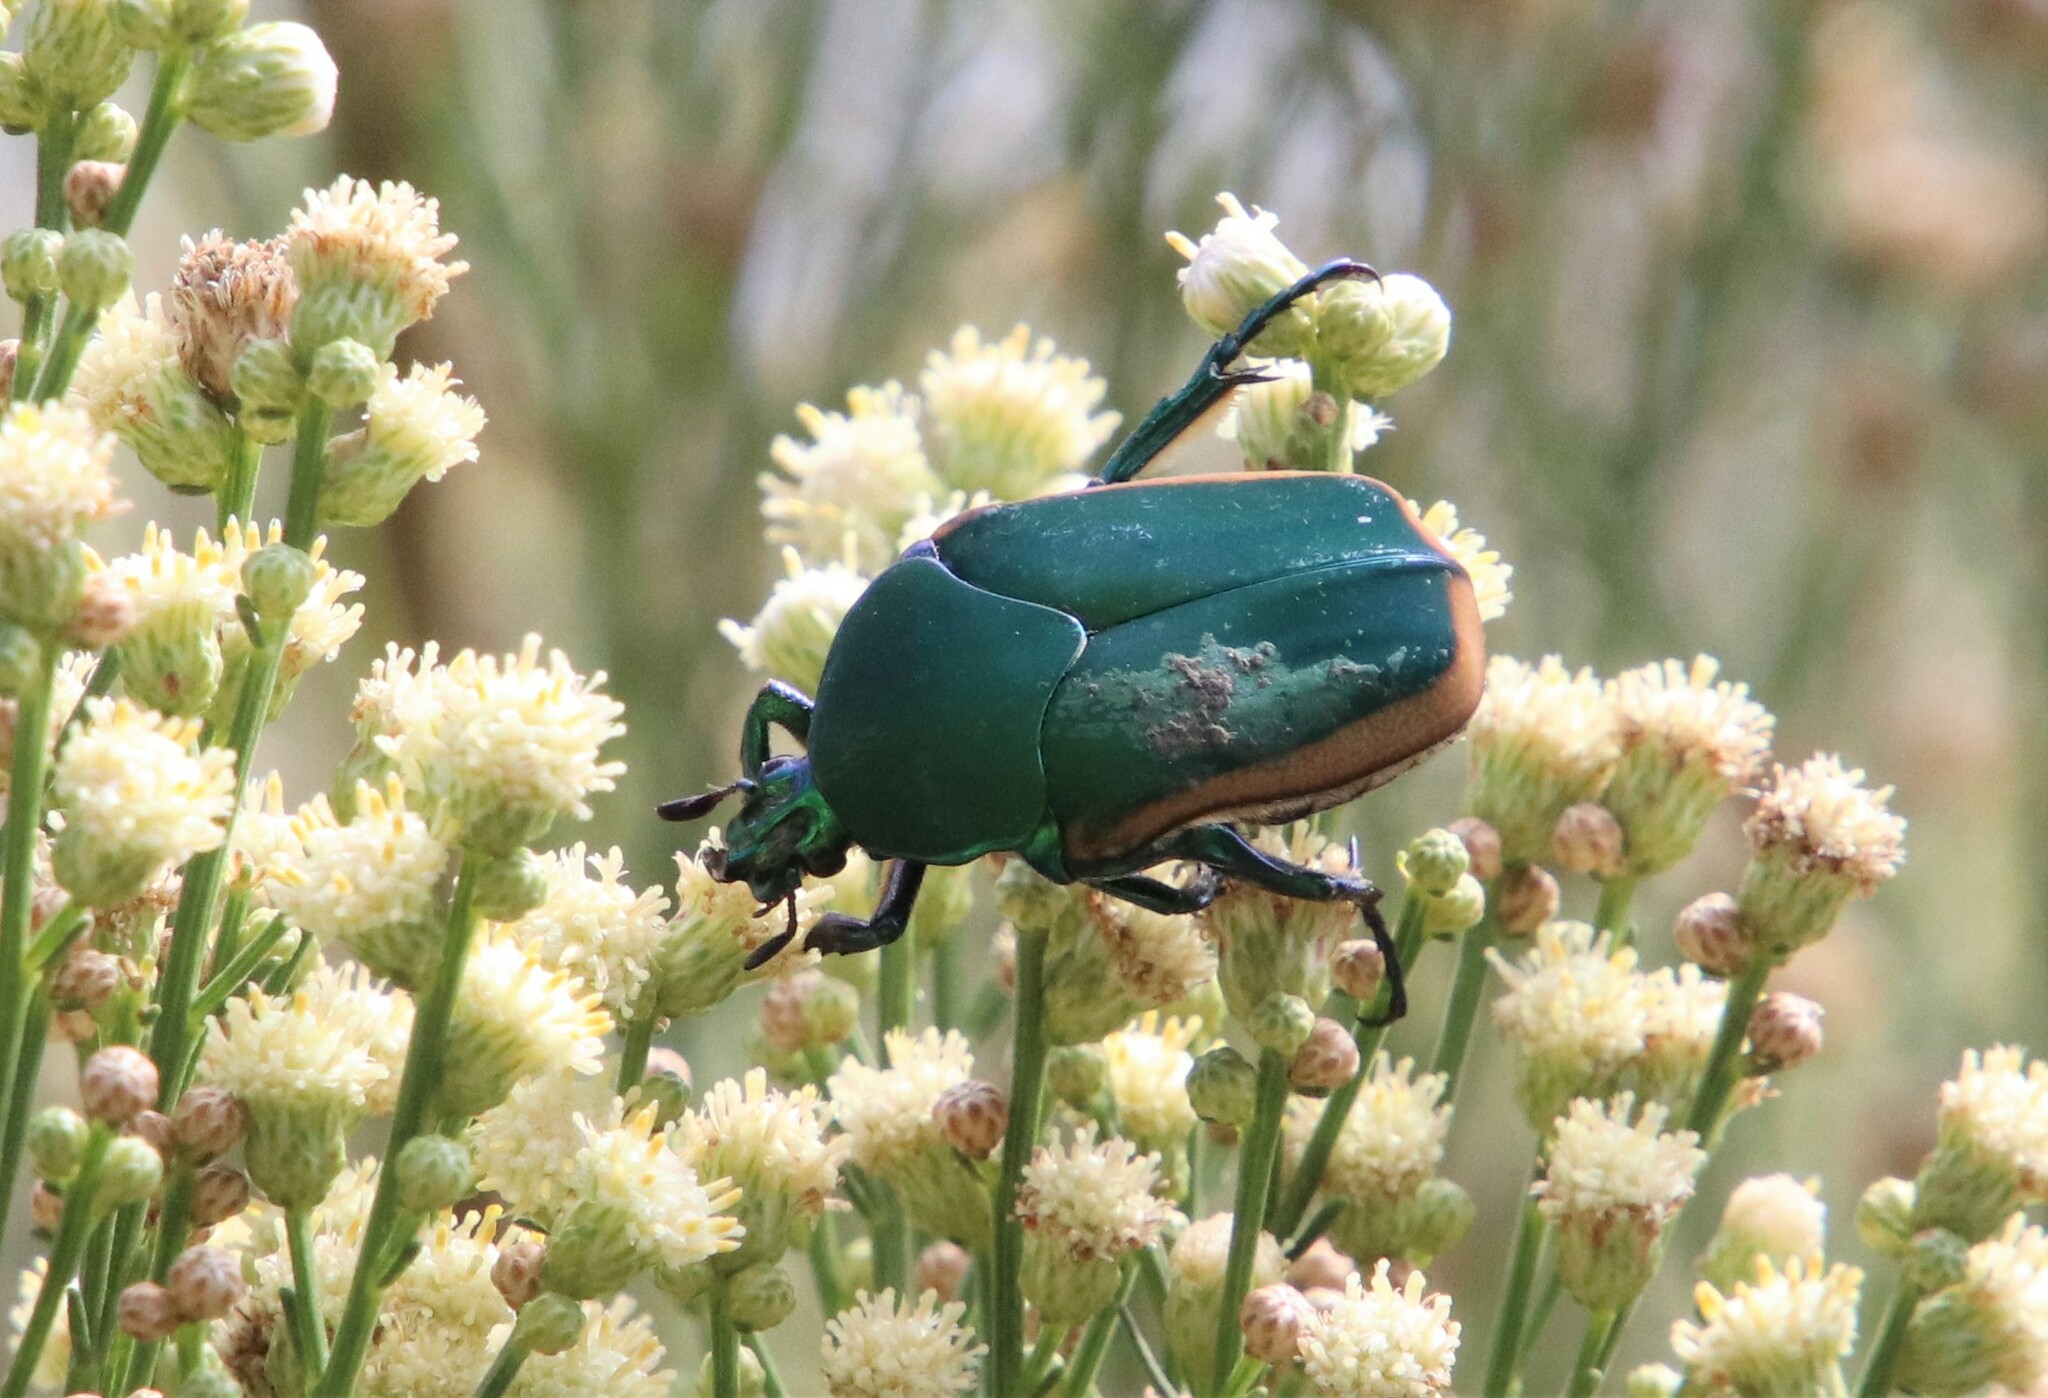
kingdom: Animalia
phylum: Arthropoda
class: Insecta
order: Coleoptera
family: Scarabaeidae
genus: Cotinis
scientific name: Cotinis mutabilis
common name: Figeater beetle
